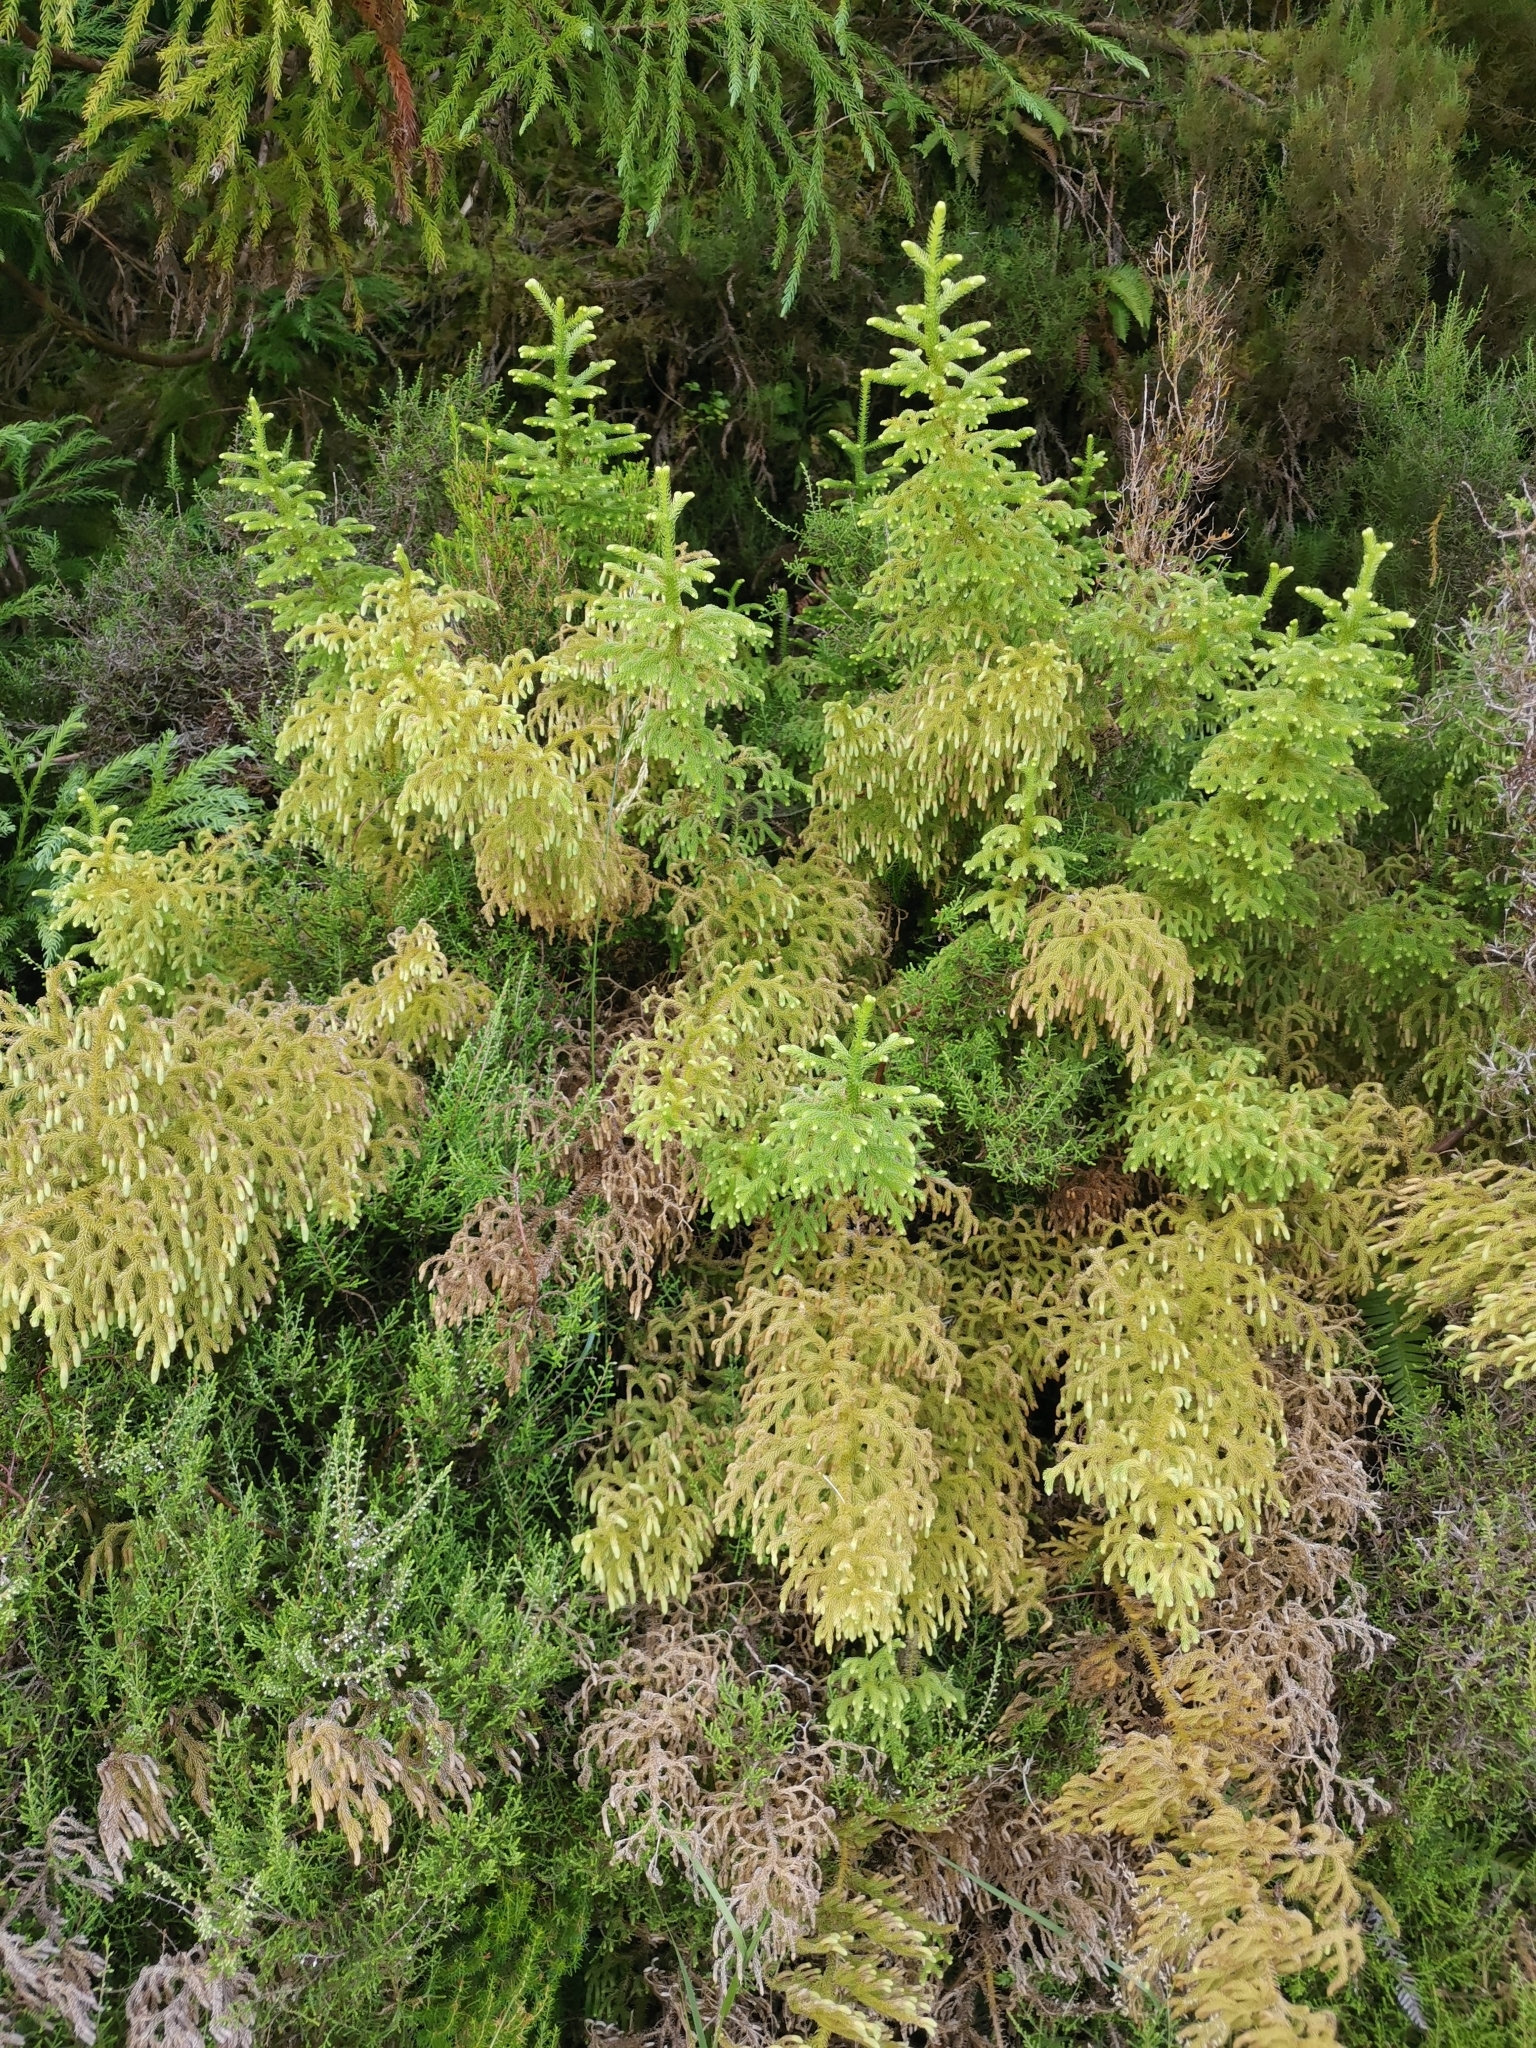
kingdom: Plantae
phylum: Tracheophyta
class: Lycopodiopsida
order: Lycopodiales
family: Lycopodiaceae
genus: Palhinhaea
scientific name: Palhinhaea cernua
